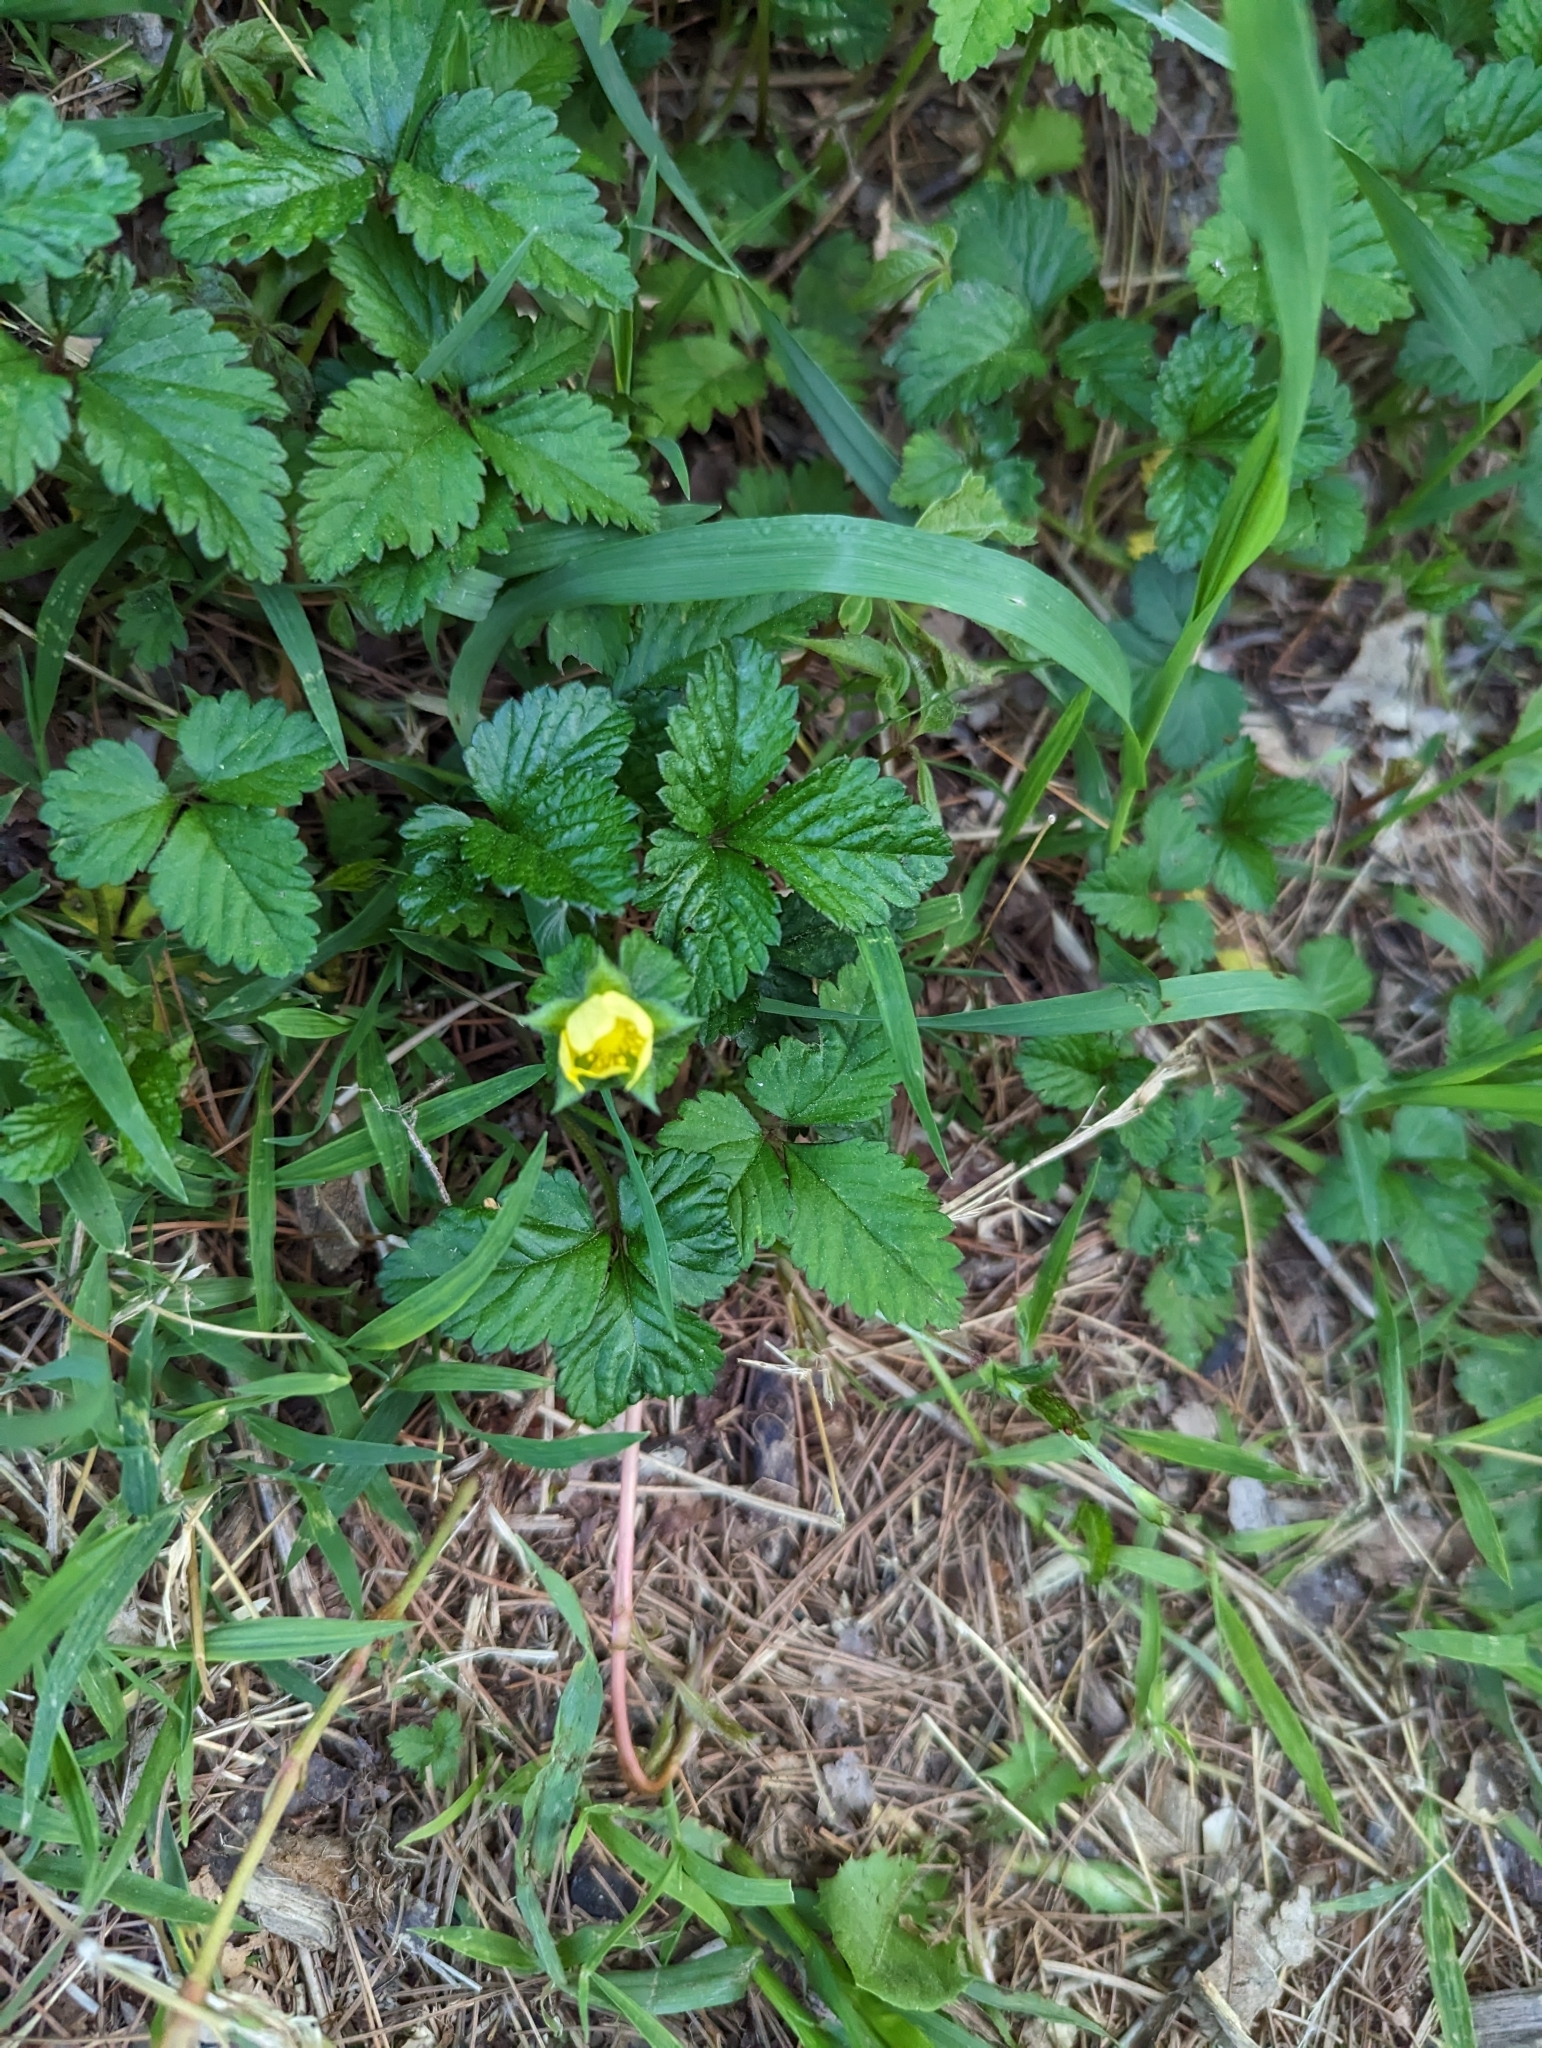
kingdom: Plantae
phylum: Tracheophyta
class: Magnoliopsida
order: Rosales
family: Rosaceae
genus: Potentilla
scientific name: Potentilla indica
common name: Yellow-flowered strawberry
